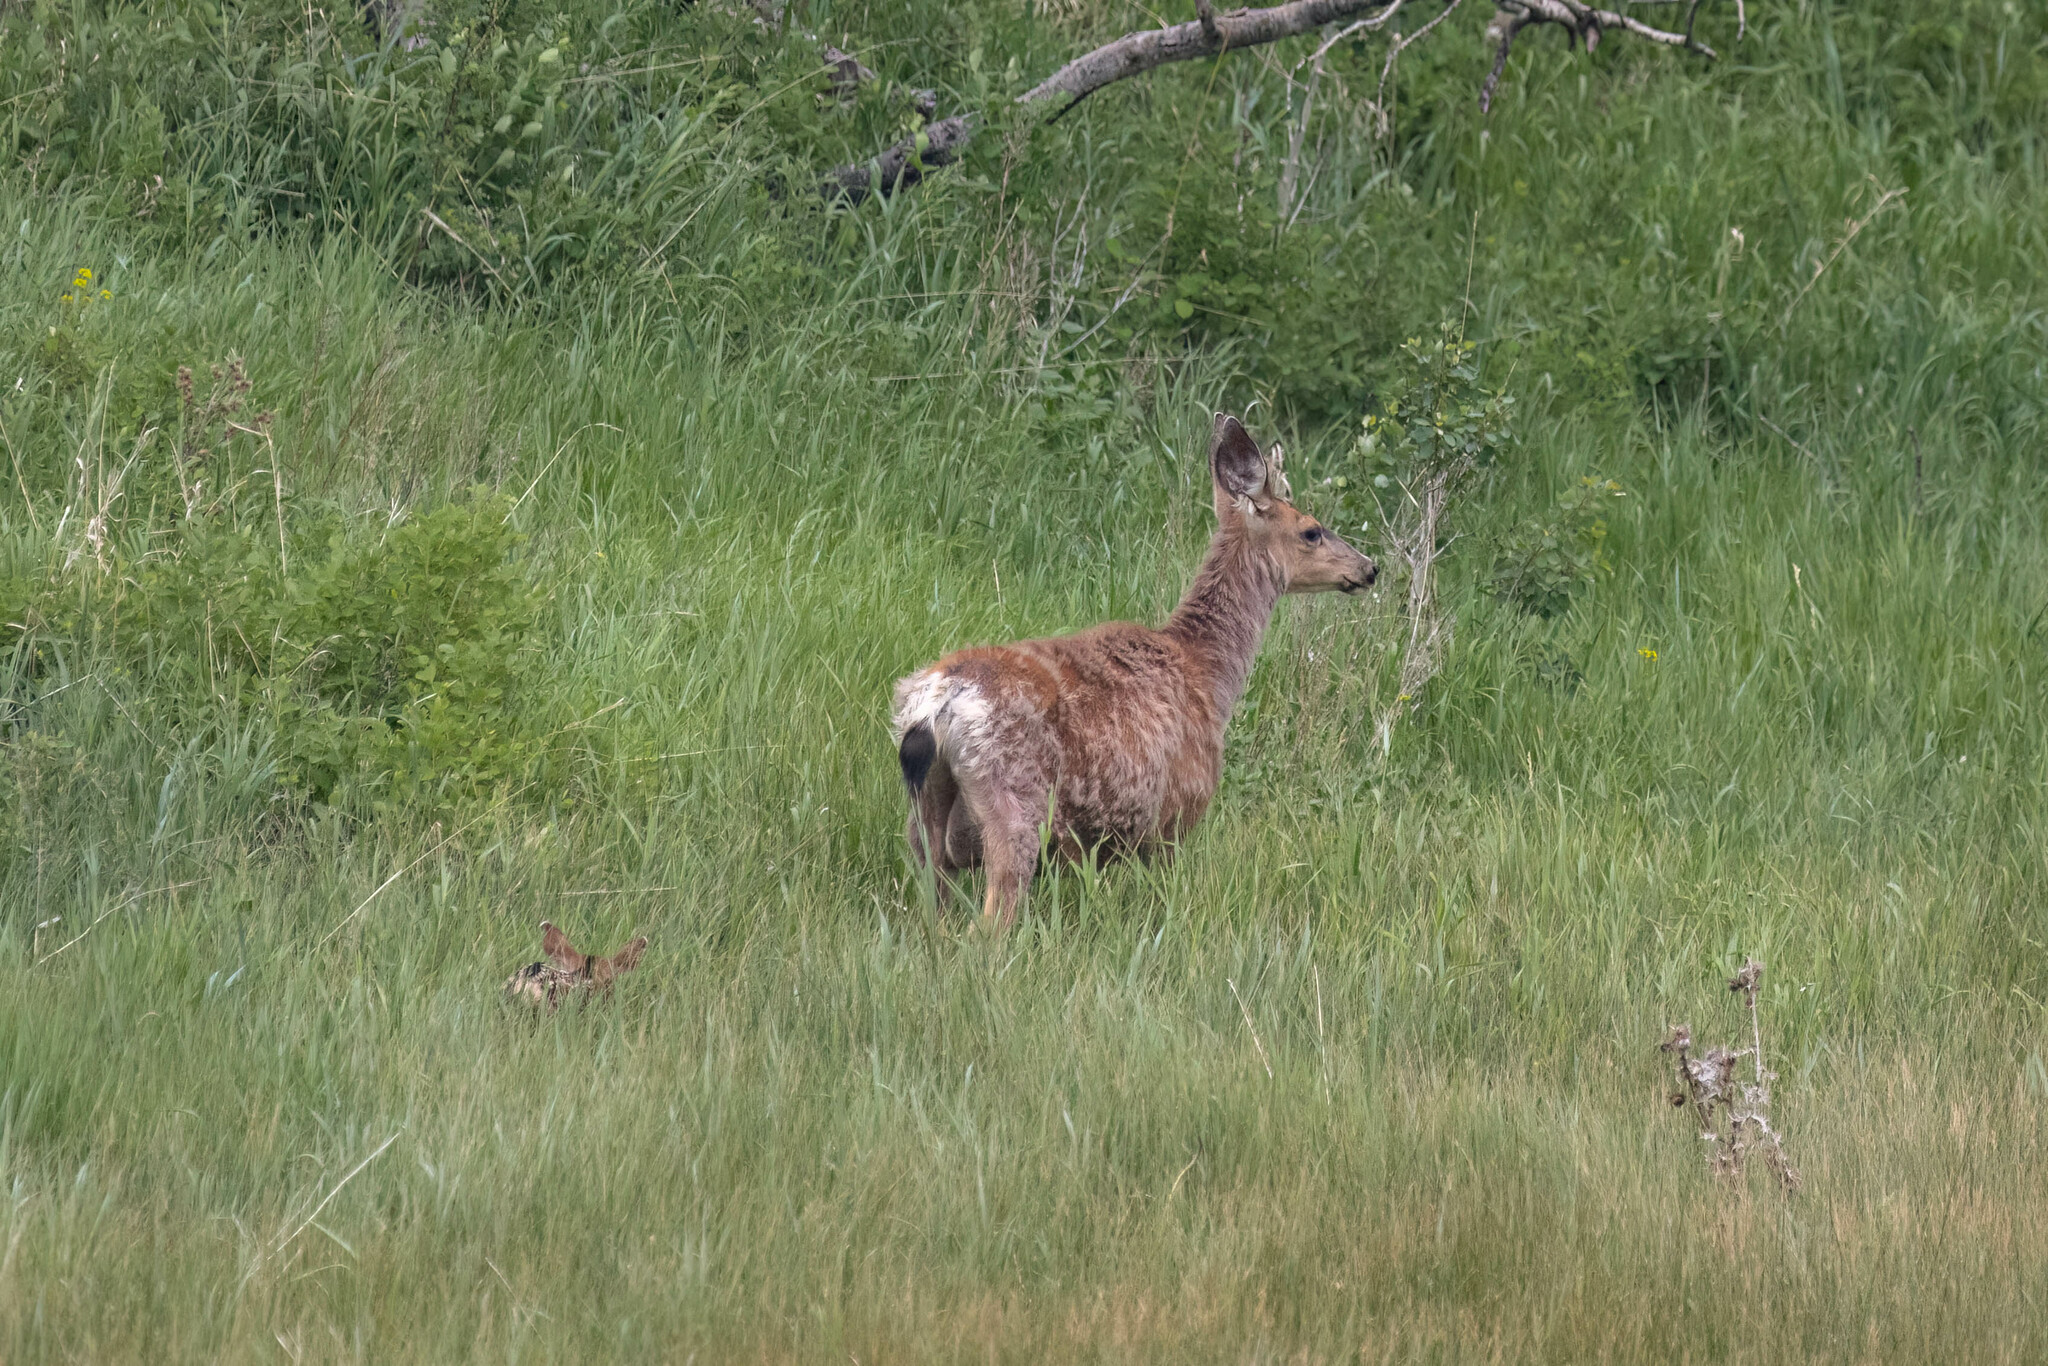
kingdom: Animalia
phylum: Chordata
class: Mammalia
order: Artiodactyla
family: Cervidae
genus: Odocoileus
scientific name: Odocoileus hemionus
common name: Mule deer
